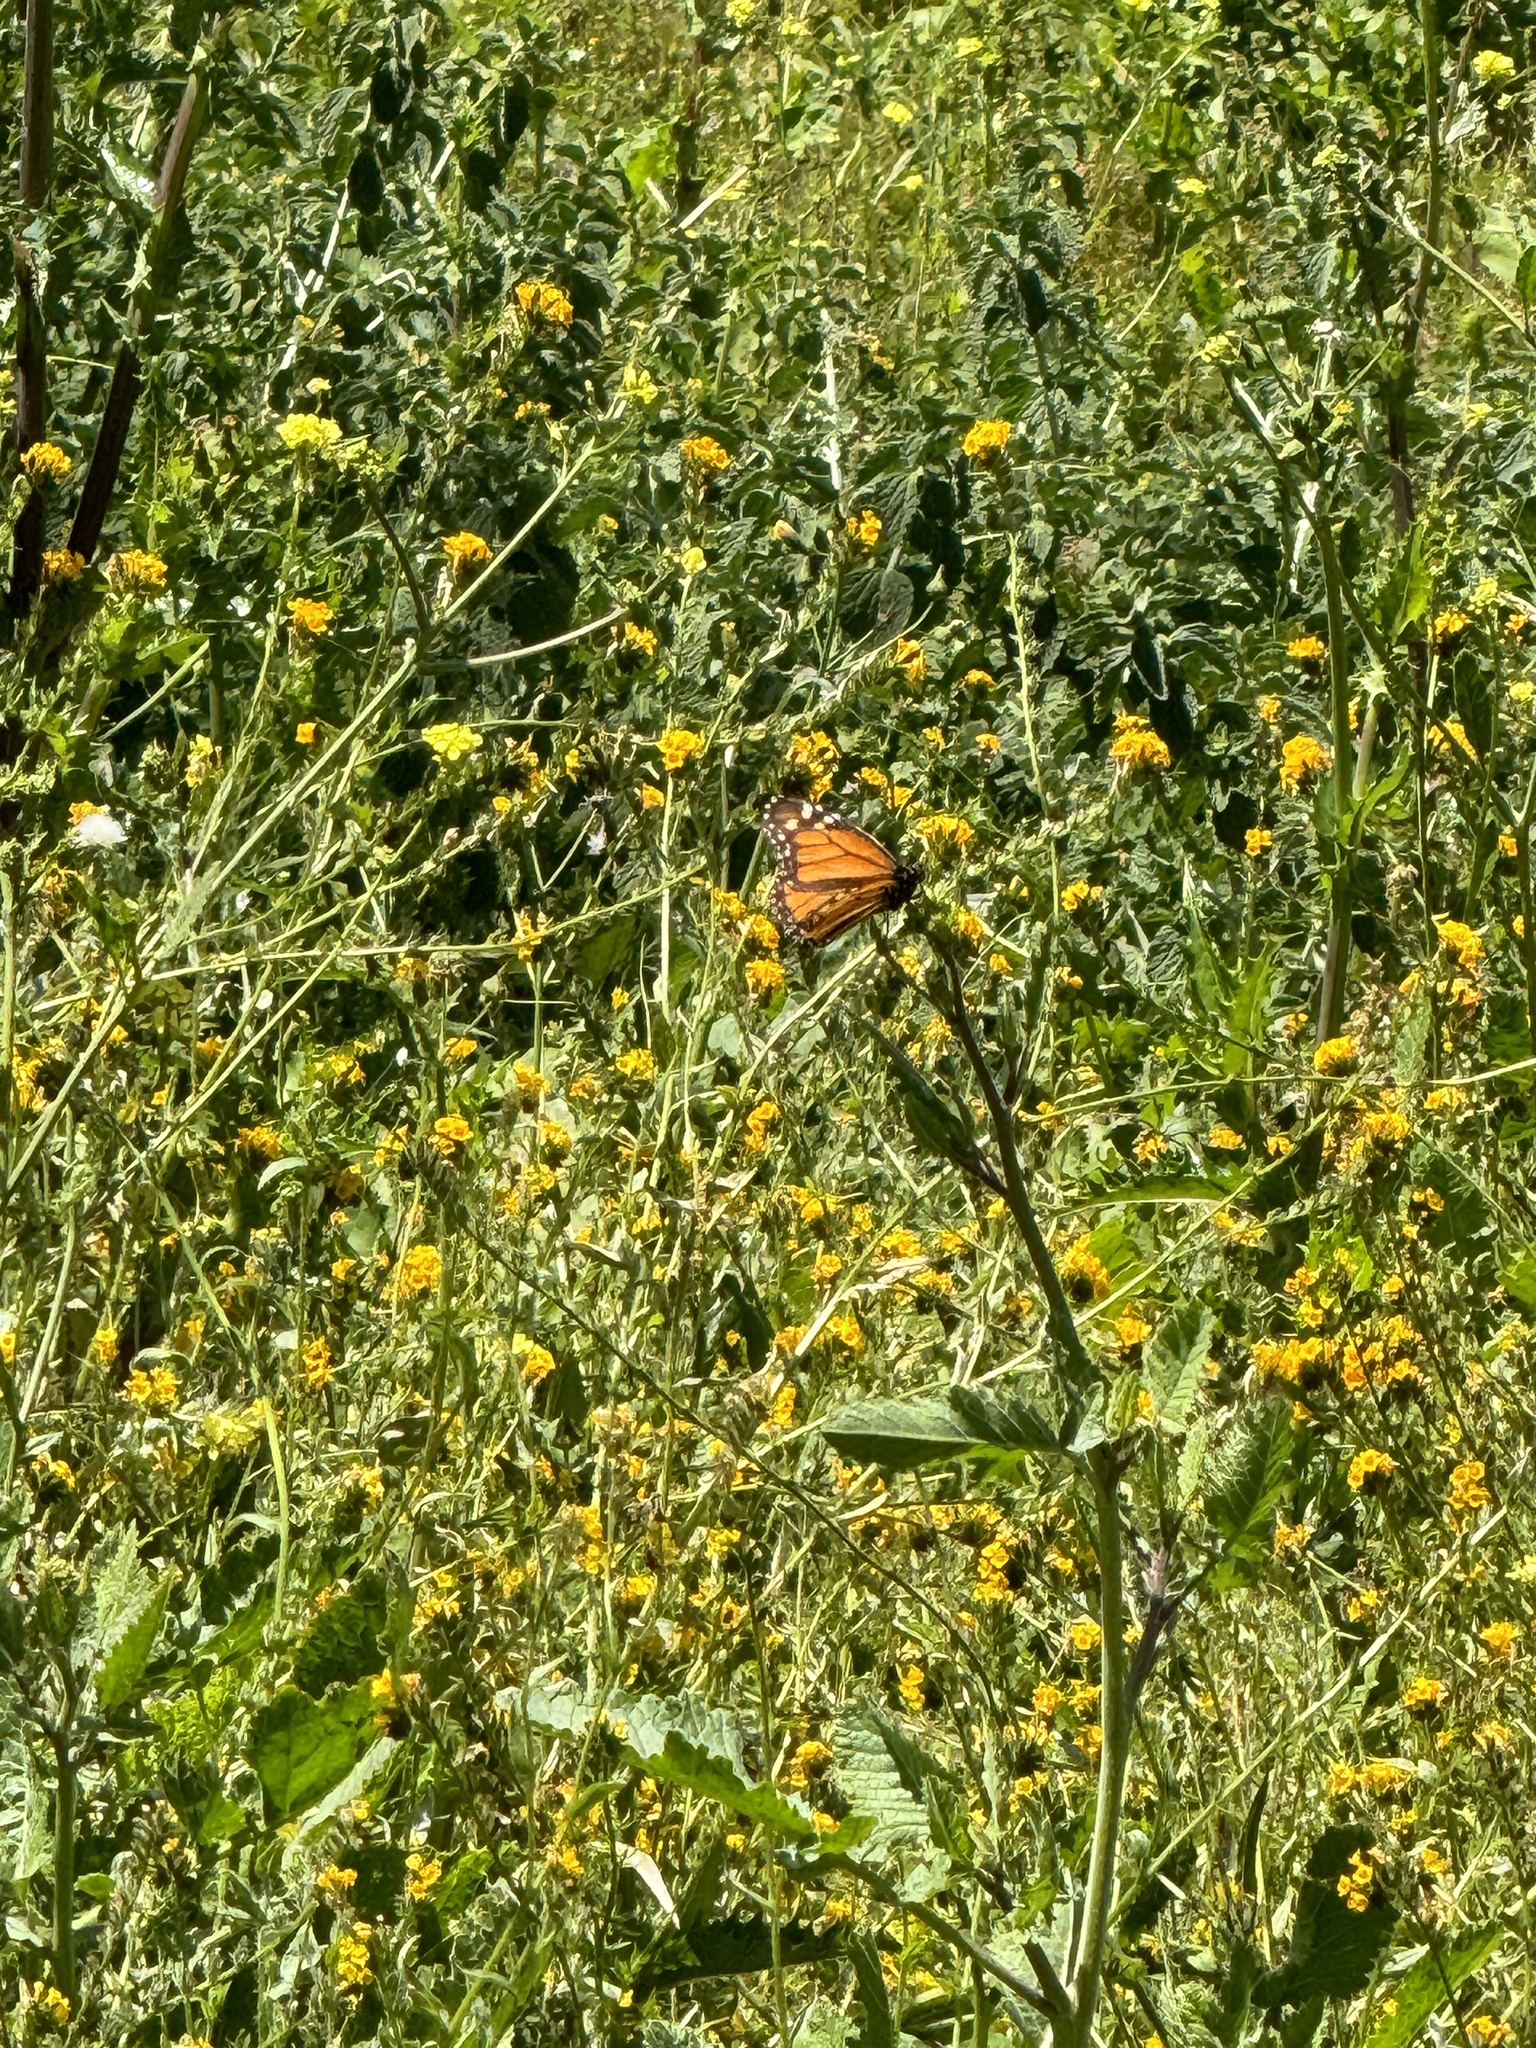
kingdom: Animalia
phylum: Arthropoda
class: Insecta
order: Lepidoptera
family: Nymphalidae
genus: Danaus
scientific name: Danaus plexippus
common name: Monarch
